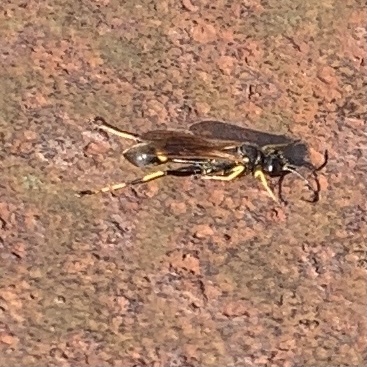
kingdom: Animalia
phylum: Arthropoda
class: Insecta
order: Hymenoptera
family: Sphecidae
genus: Sceliphron
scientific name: Sceliphron caementarium
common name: Mud dauber
